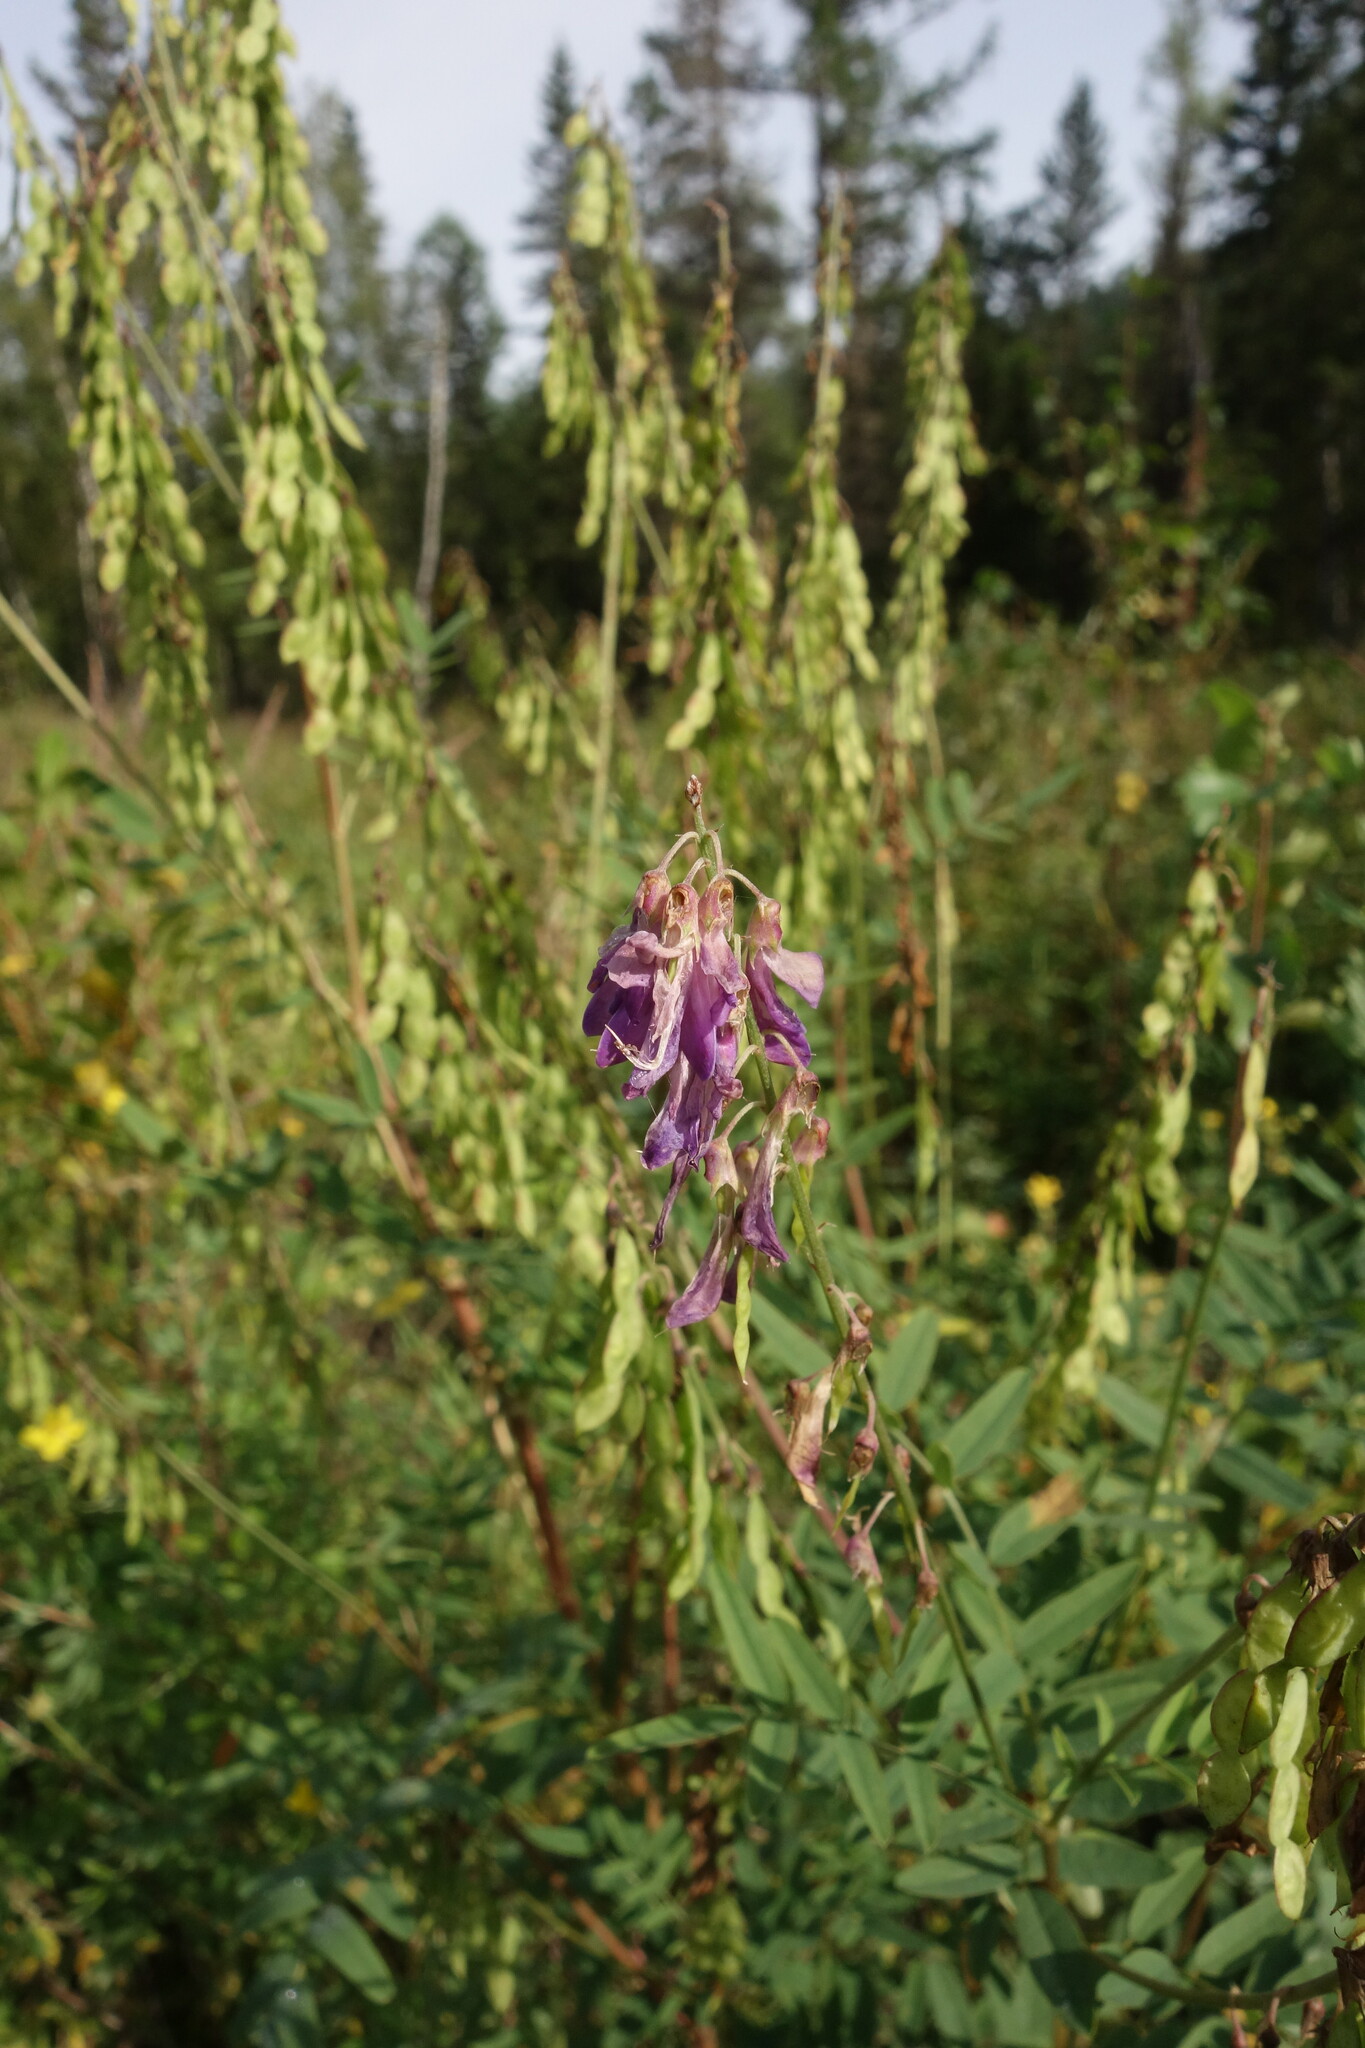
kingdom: Plantae
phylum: Tracheophyta
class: Magnoliopsida
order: Fabales
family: Fabaceae
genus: Hedysarum
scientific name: Hedysarum alpinum
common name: Alpine sweet-vetch
